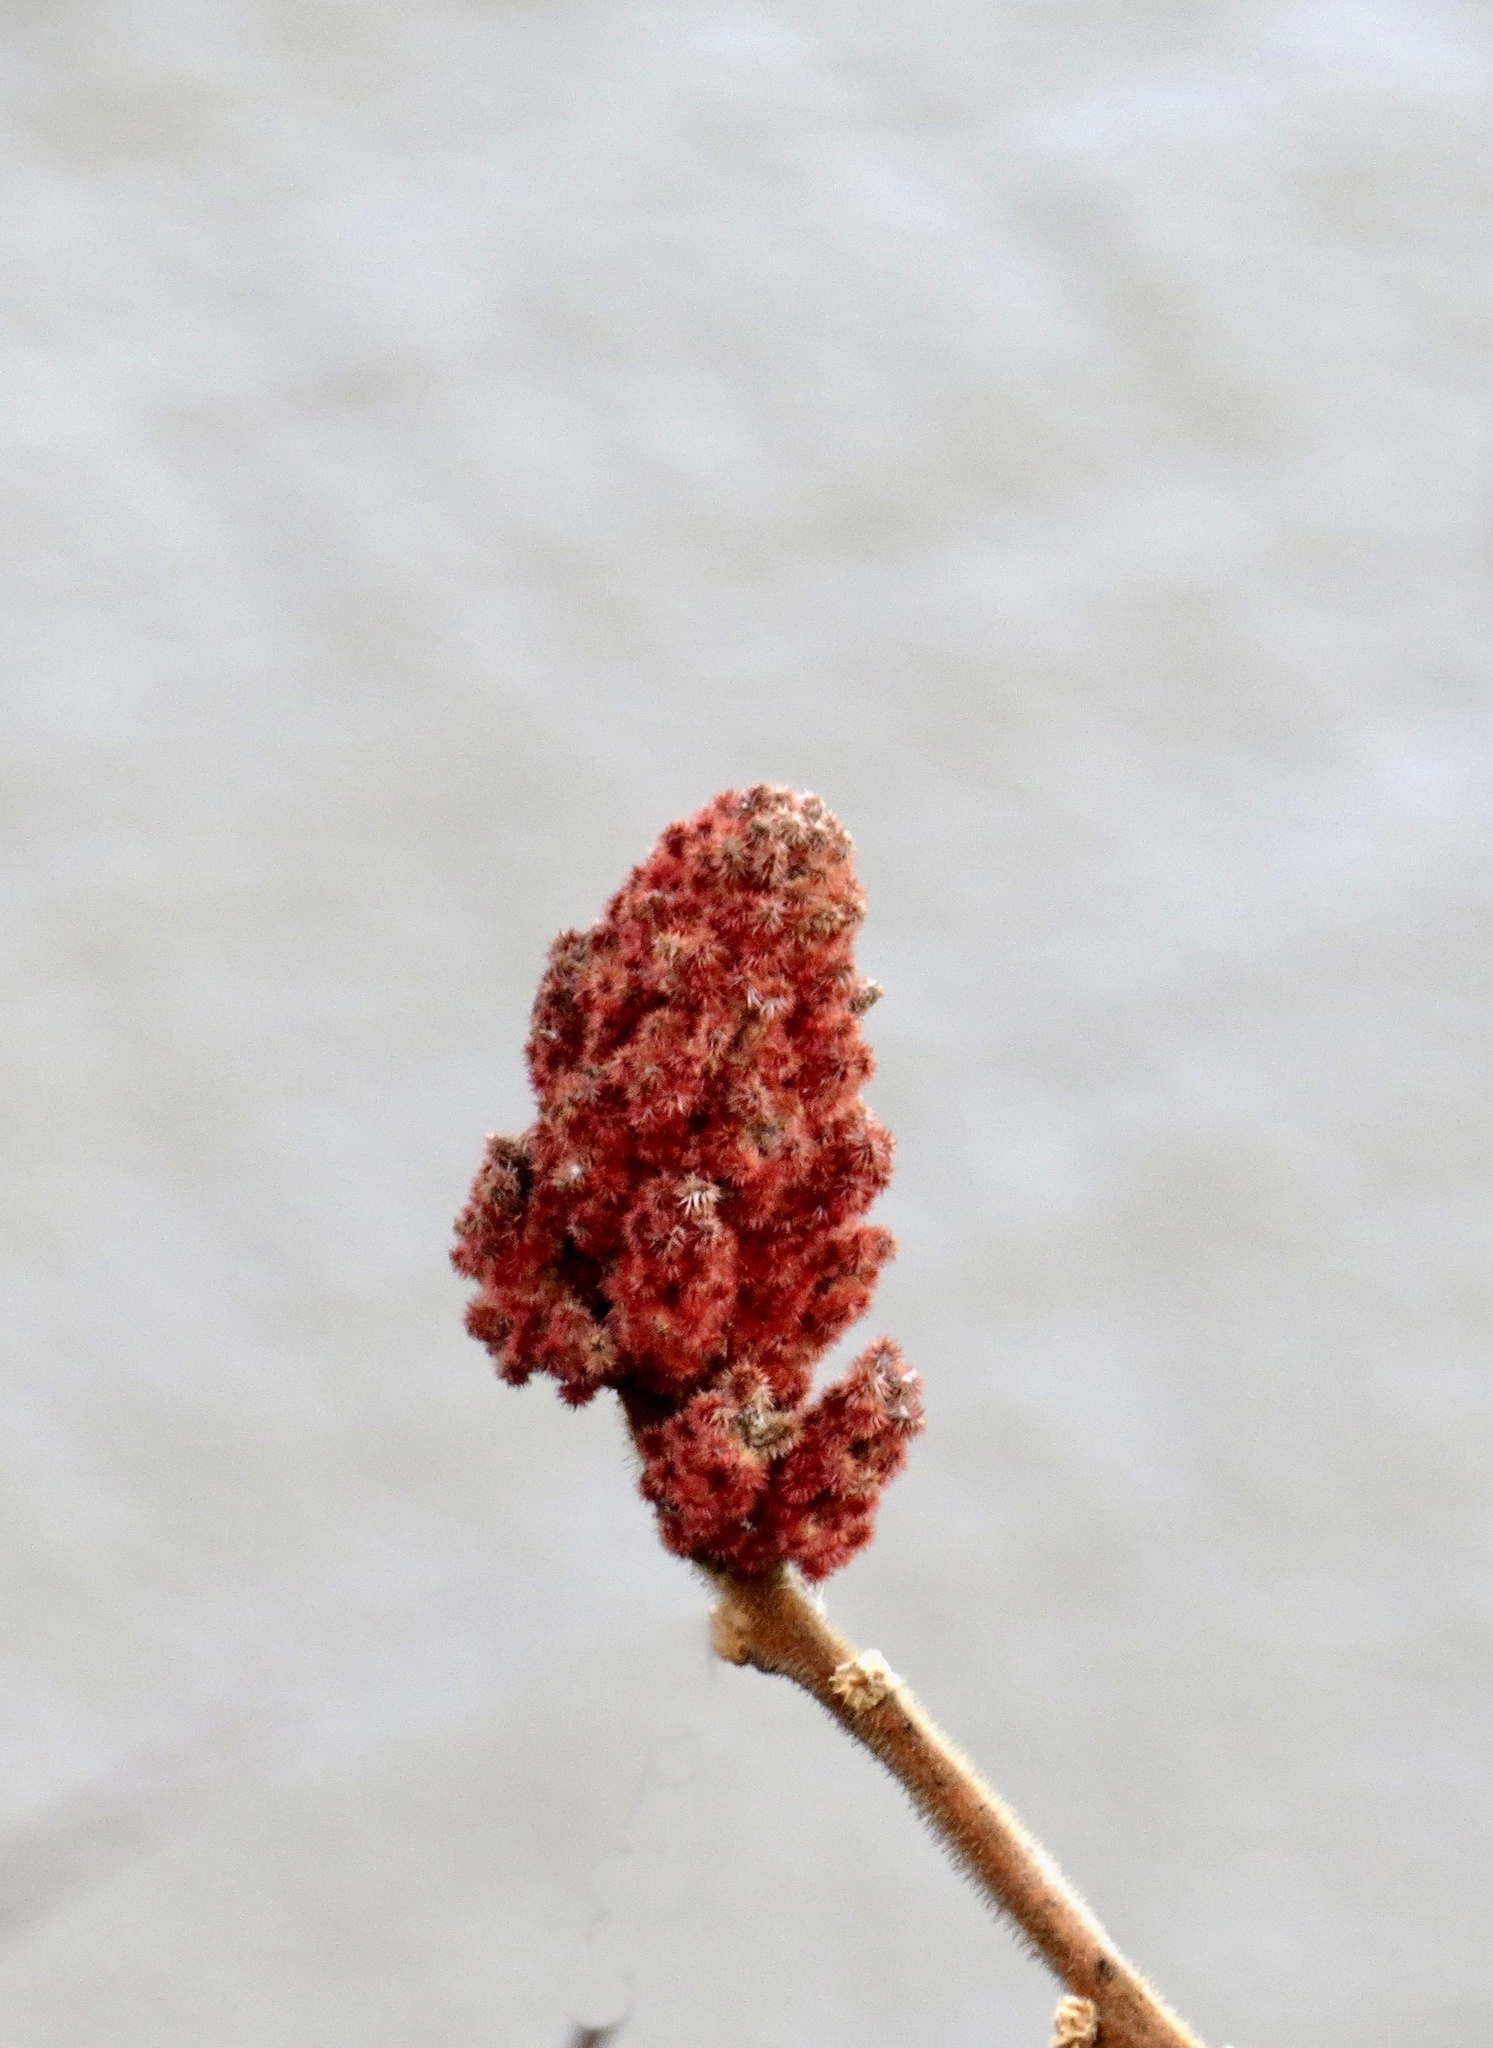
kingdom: Plantae
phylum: Tracheophyta
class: Magnoliopsida
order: Sapindales
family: Anacardiaceae
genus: Rhus
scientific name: Rhus typhina
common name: Staghorn sumac
